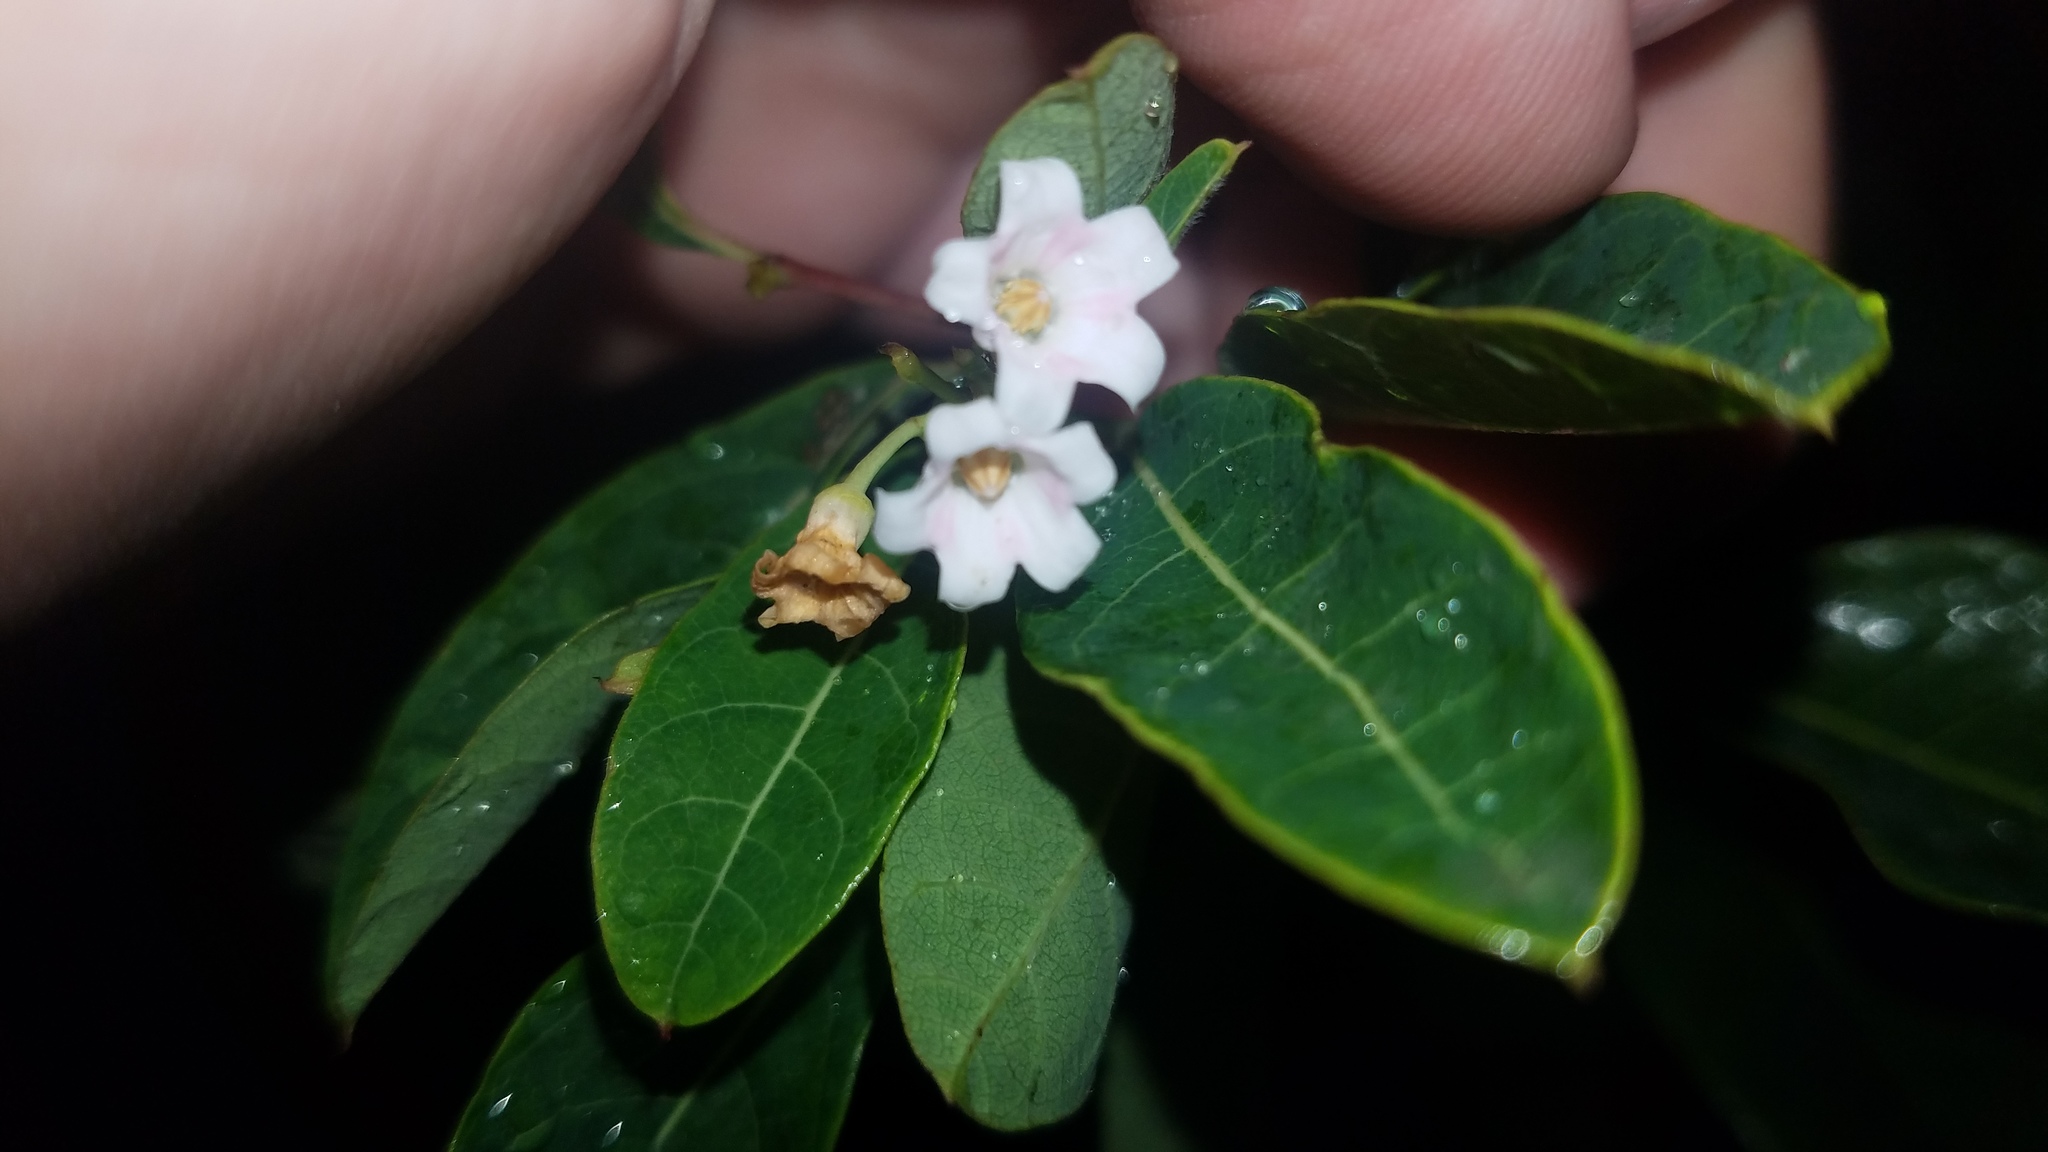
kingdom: Plantae
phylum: Tracheophyta
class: Magnoliopsida
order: Gentianales
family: Apocynaceae
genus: Apocynum
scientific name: Apocynum androsaemifolium
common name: Spreading dogbane
